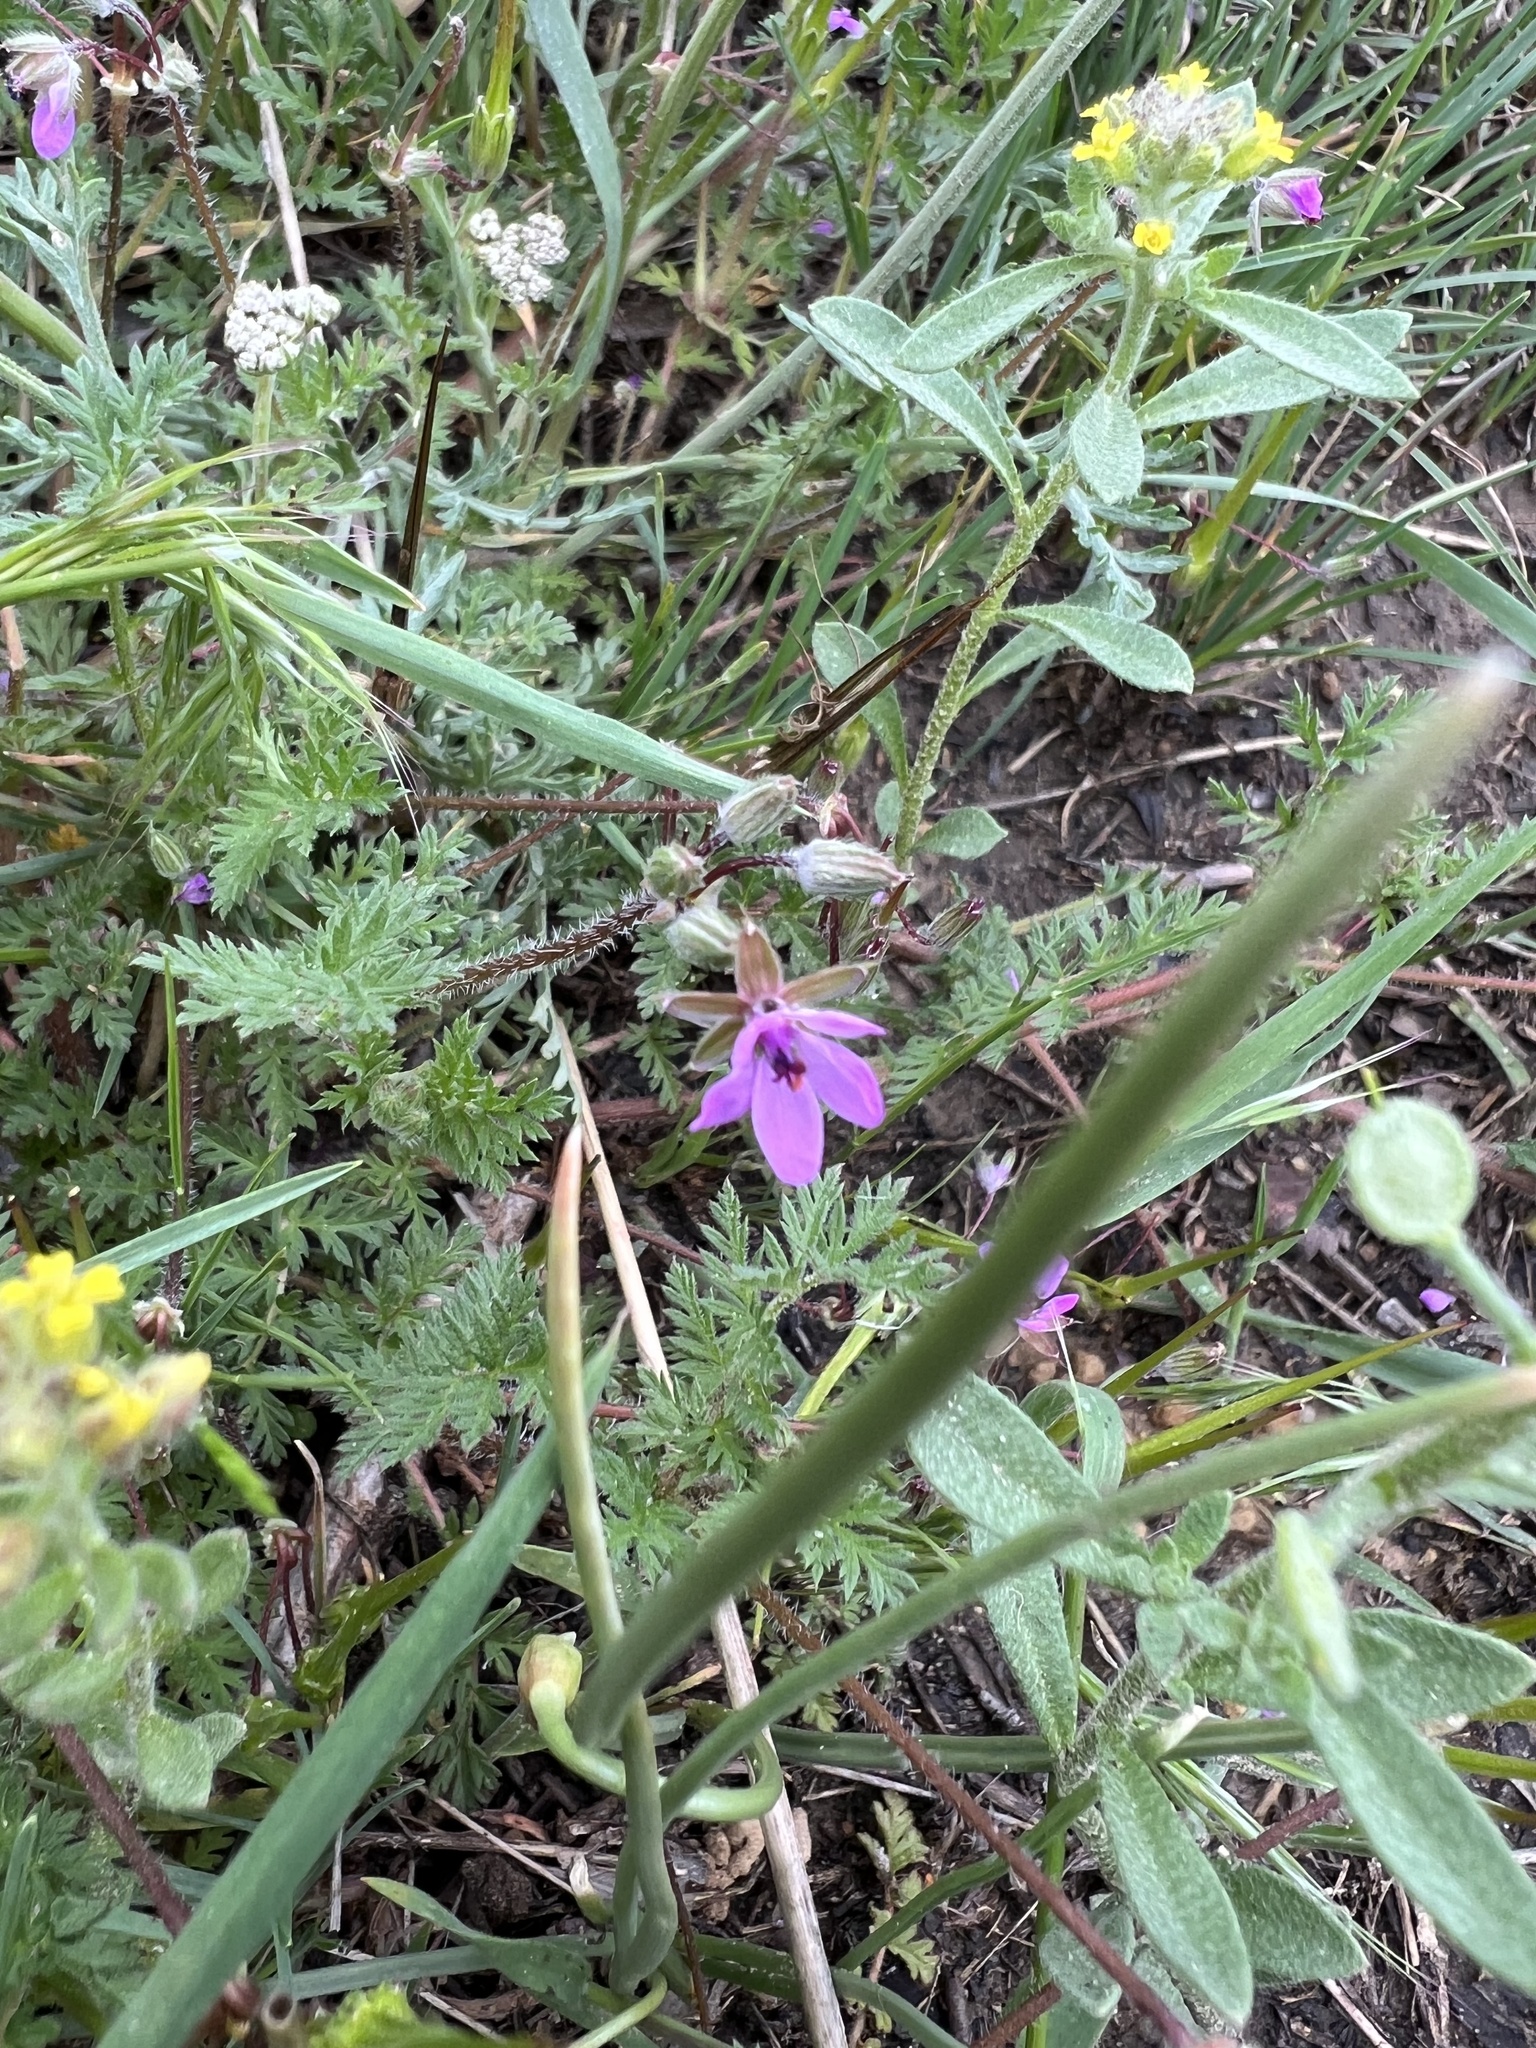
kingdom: Plantae
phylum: Tracheophyta
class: Magnoliopsida
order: Geraniales
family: Geraniaceae
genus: Erodium
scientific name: Erodium cicutarium
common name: Common stork's-bill
